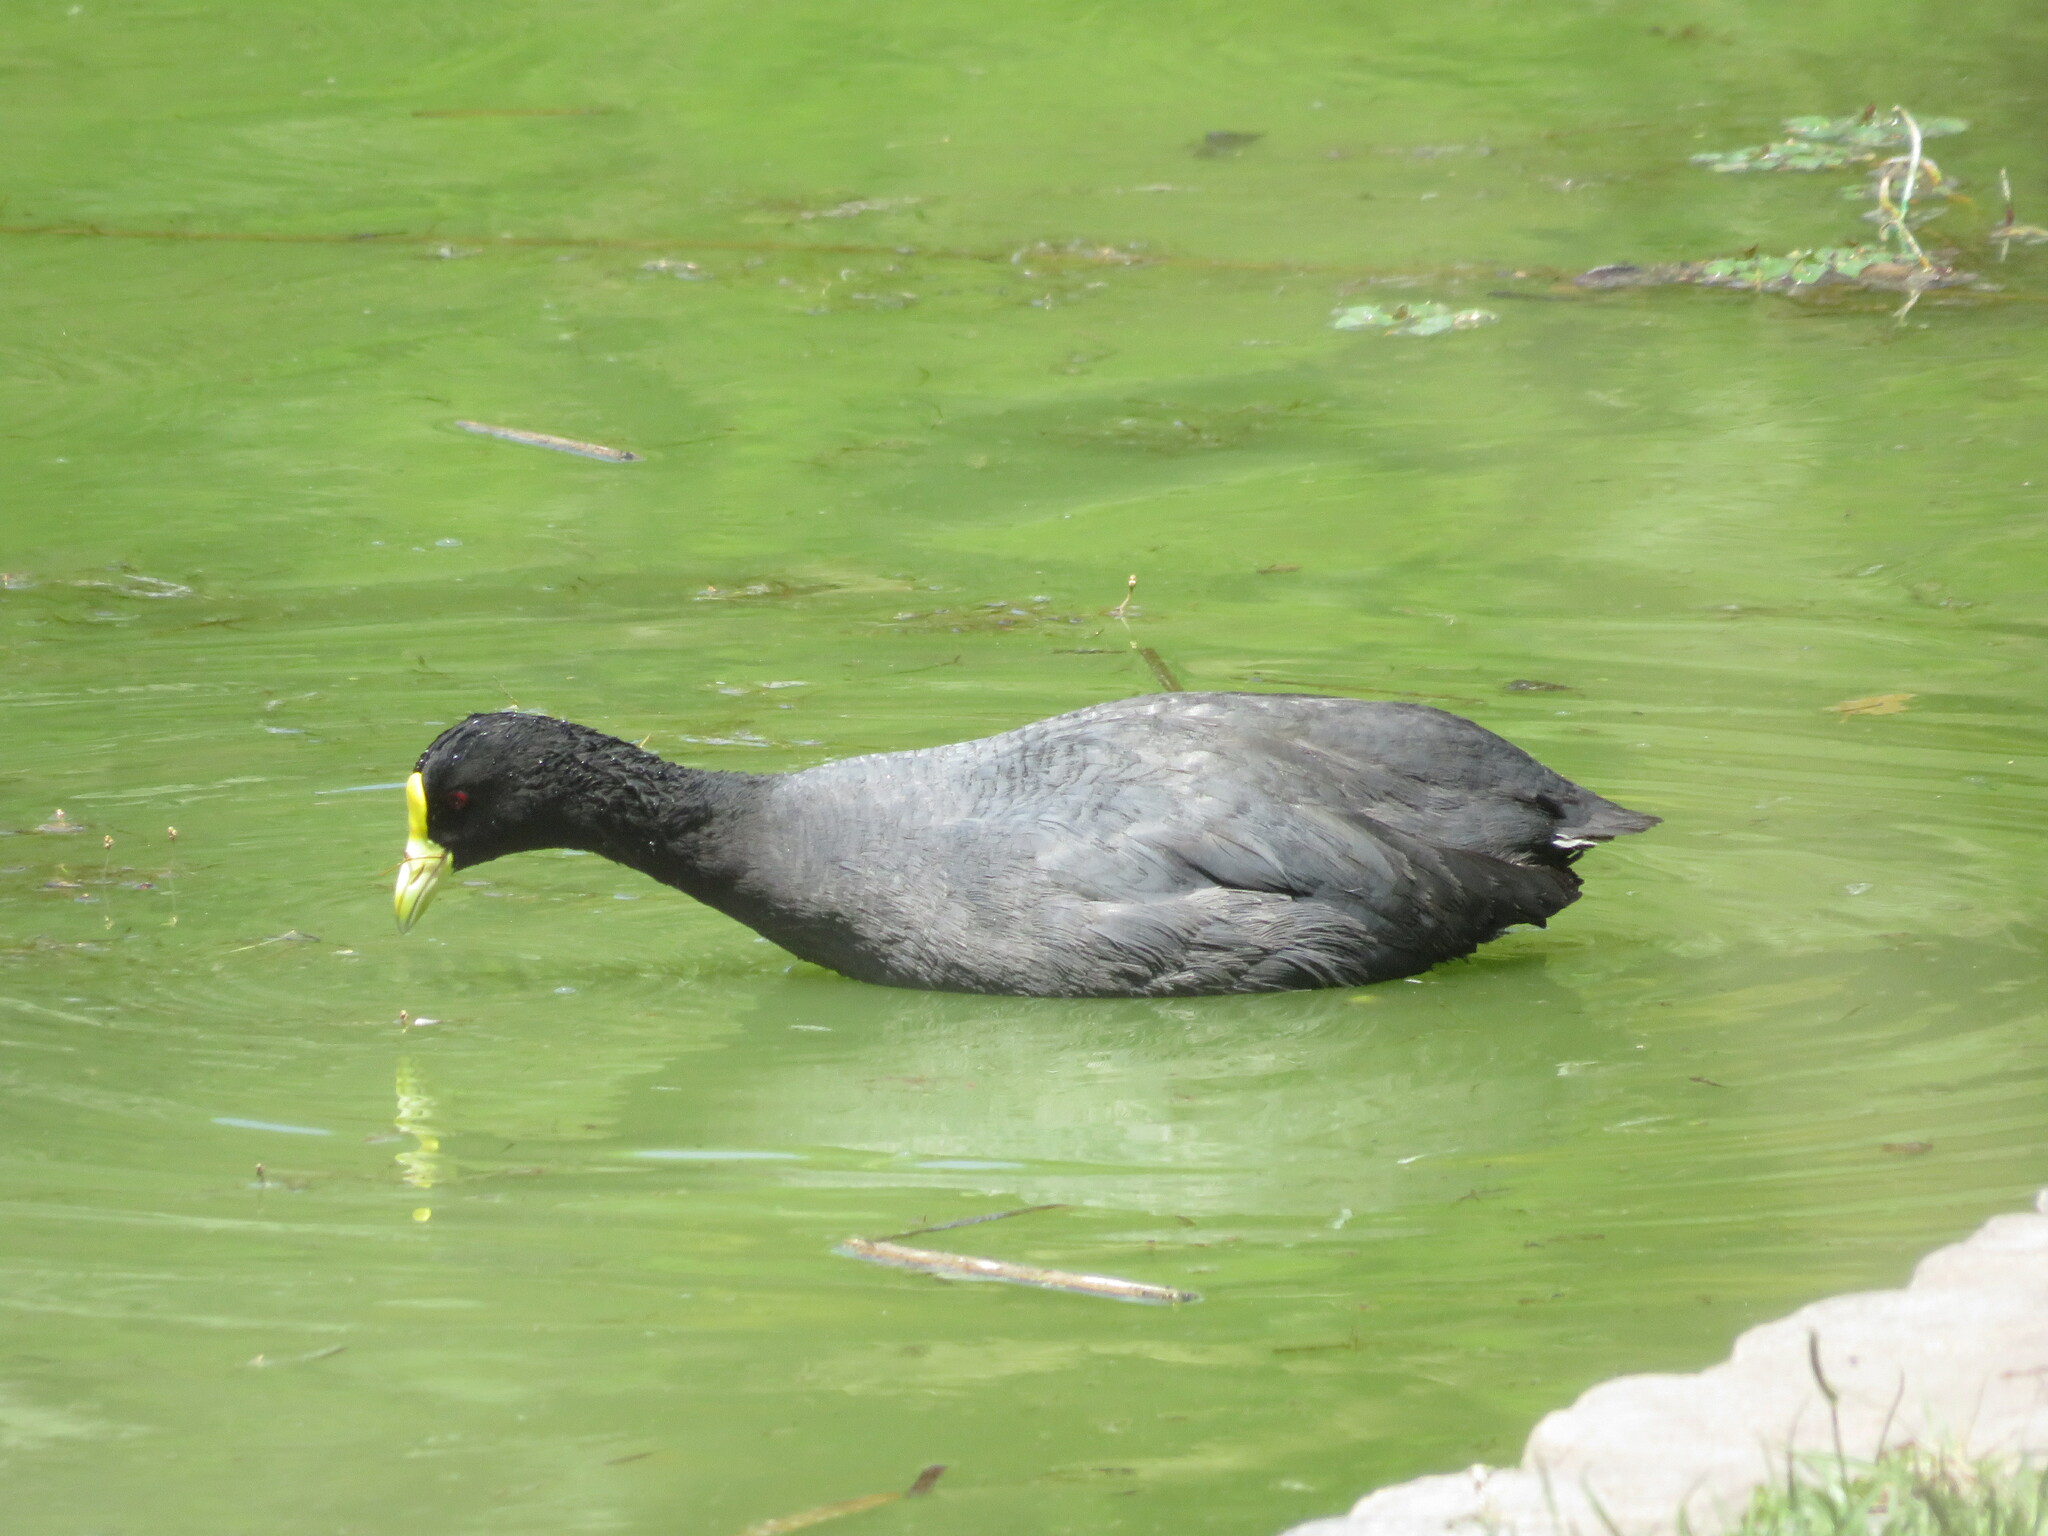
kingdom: Animalia
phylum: Chordata
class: Aves
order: Gruiformes
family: Rallidae
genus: Fulica
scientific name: Fulica leucoptera
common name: White-winged coot
